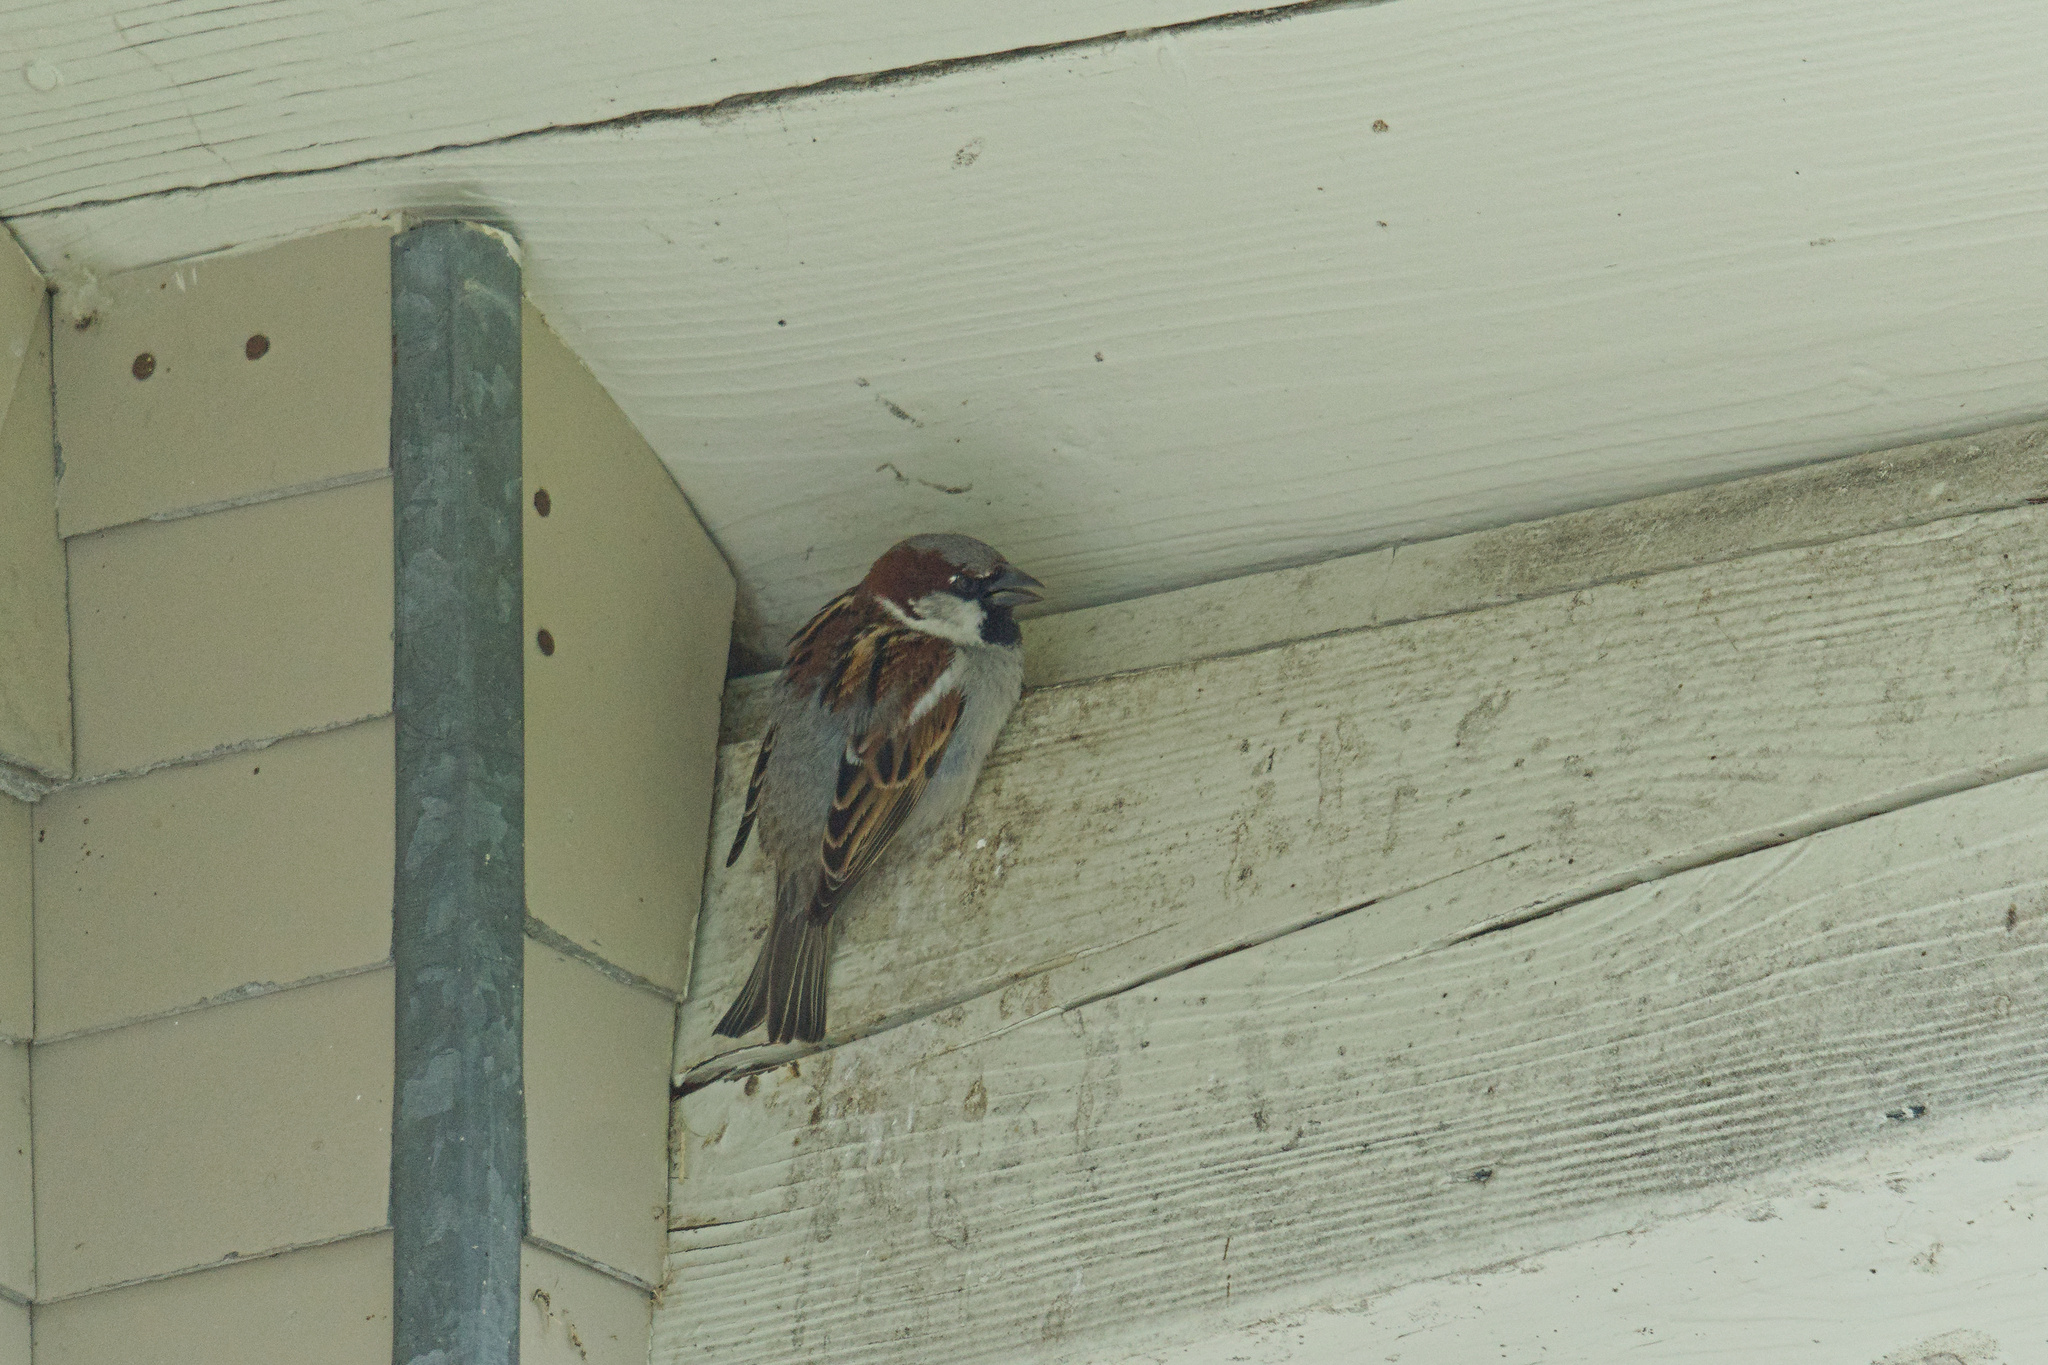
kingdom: Animalia
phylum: Chordata
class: Aves
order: Passeriformes
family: Passeridae
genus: Passer
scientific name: Passer domesticus
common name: House sparrow
